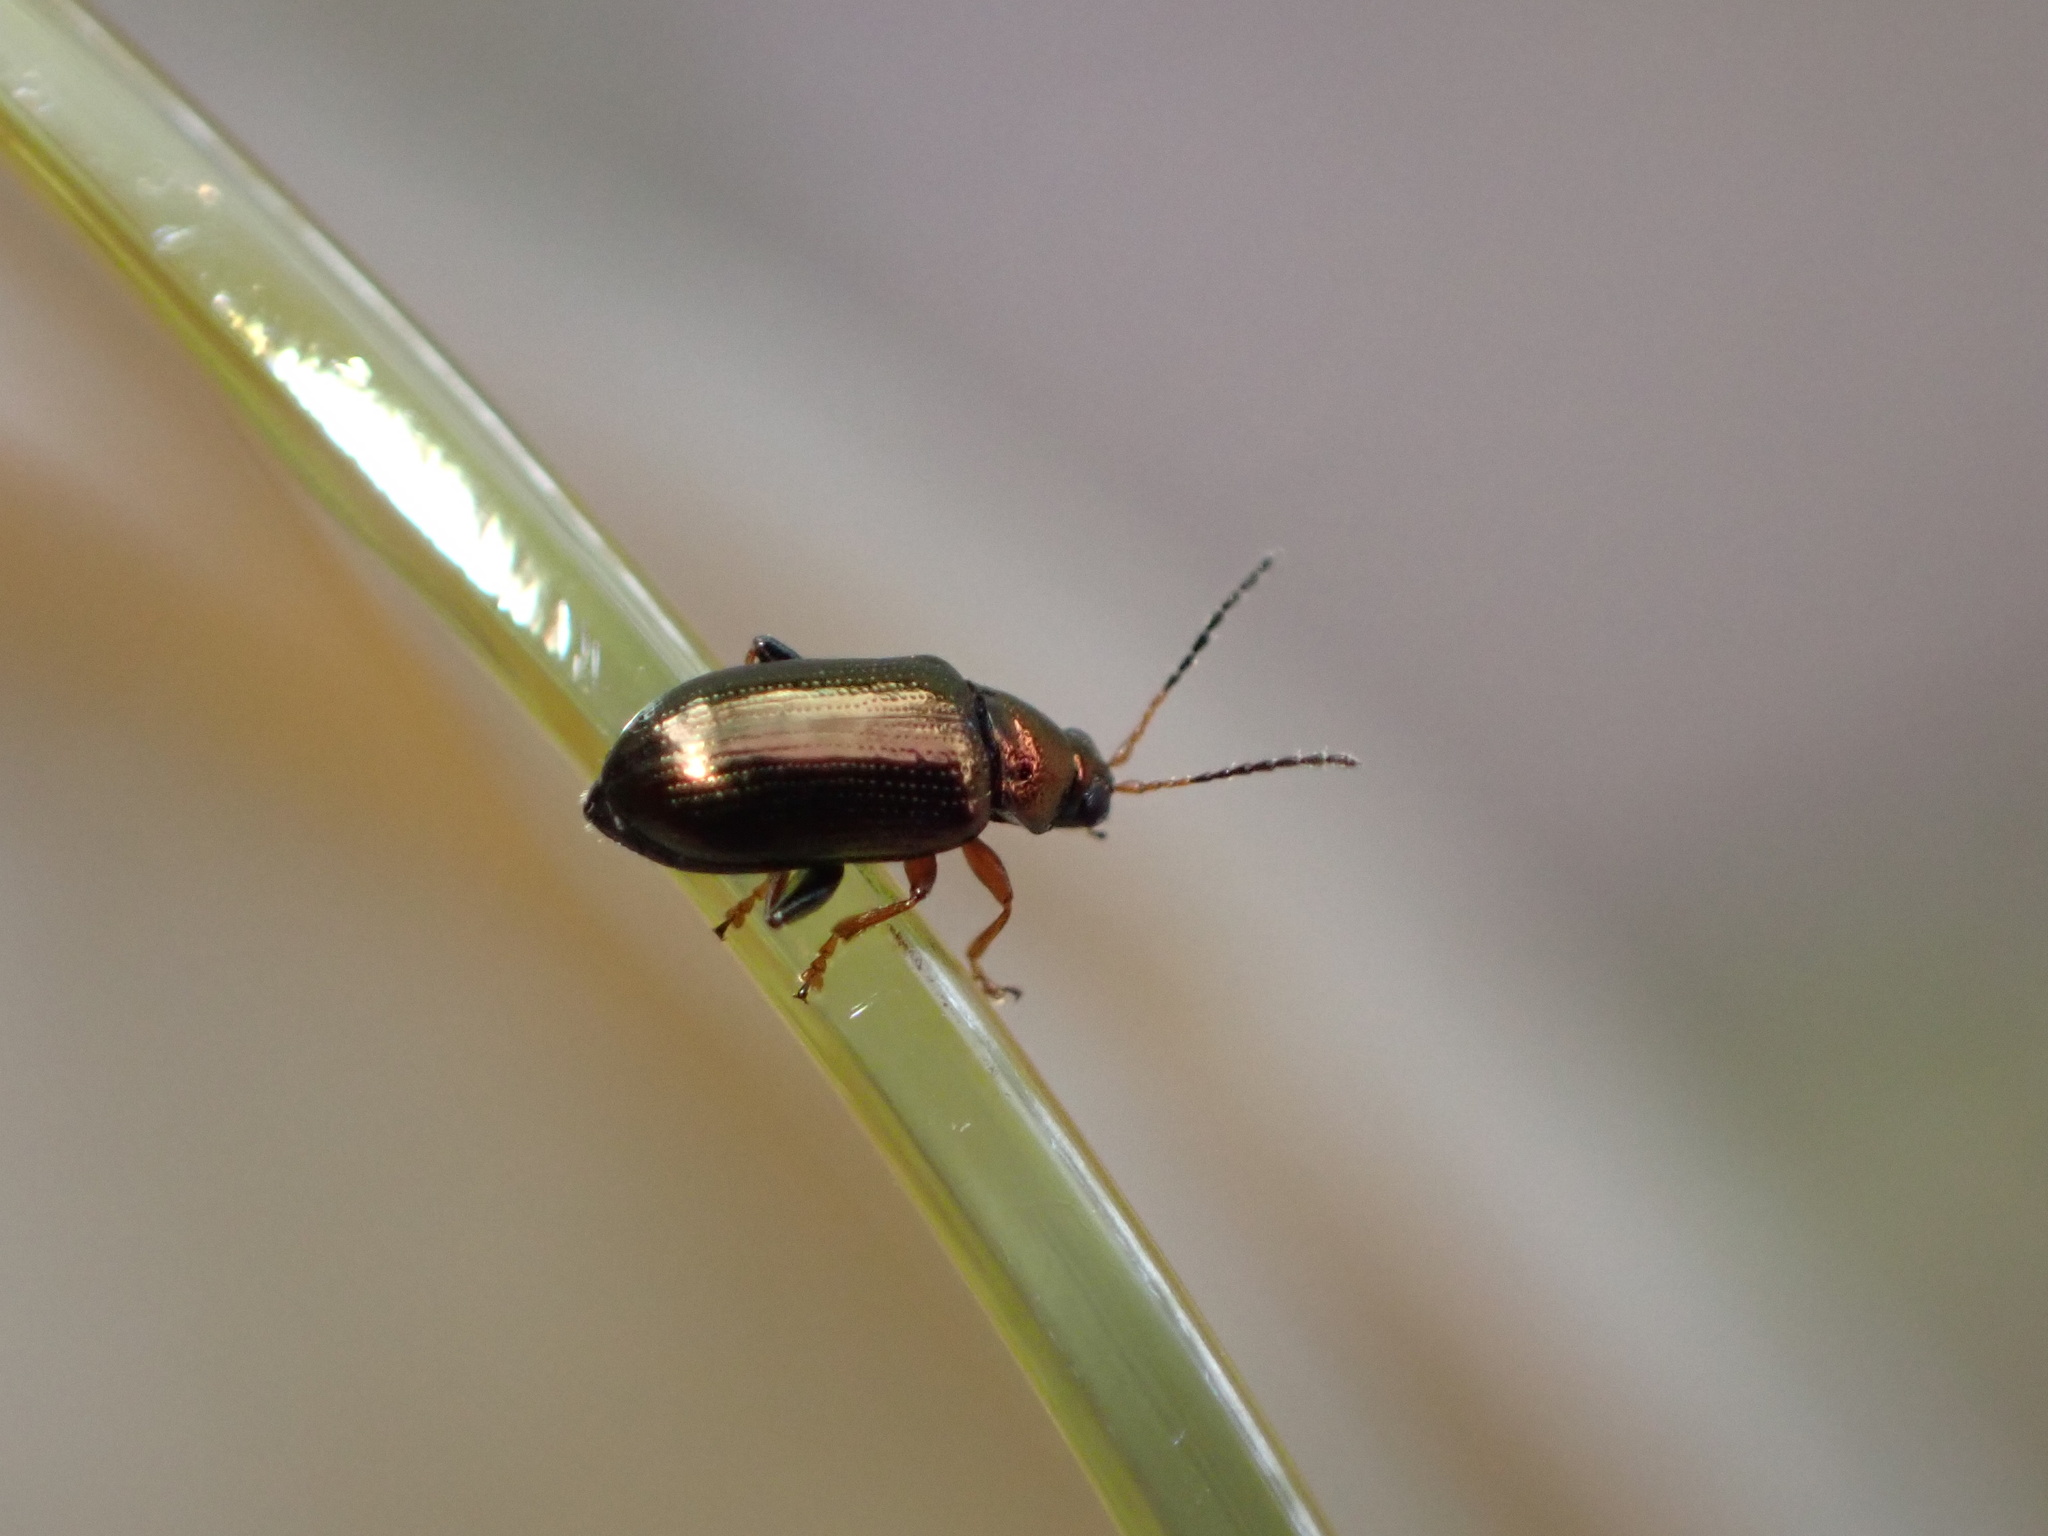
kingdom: Animalia
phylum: Arthropoda
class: Insecta
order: Coleoptera
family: Chrysomelidae
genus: Crepidodera
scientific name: Crepidodera plutus
